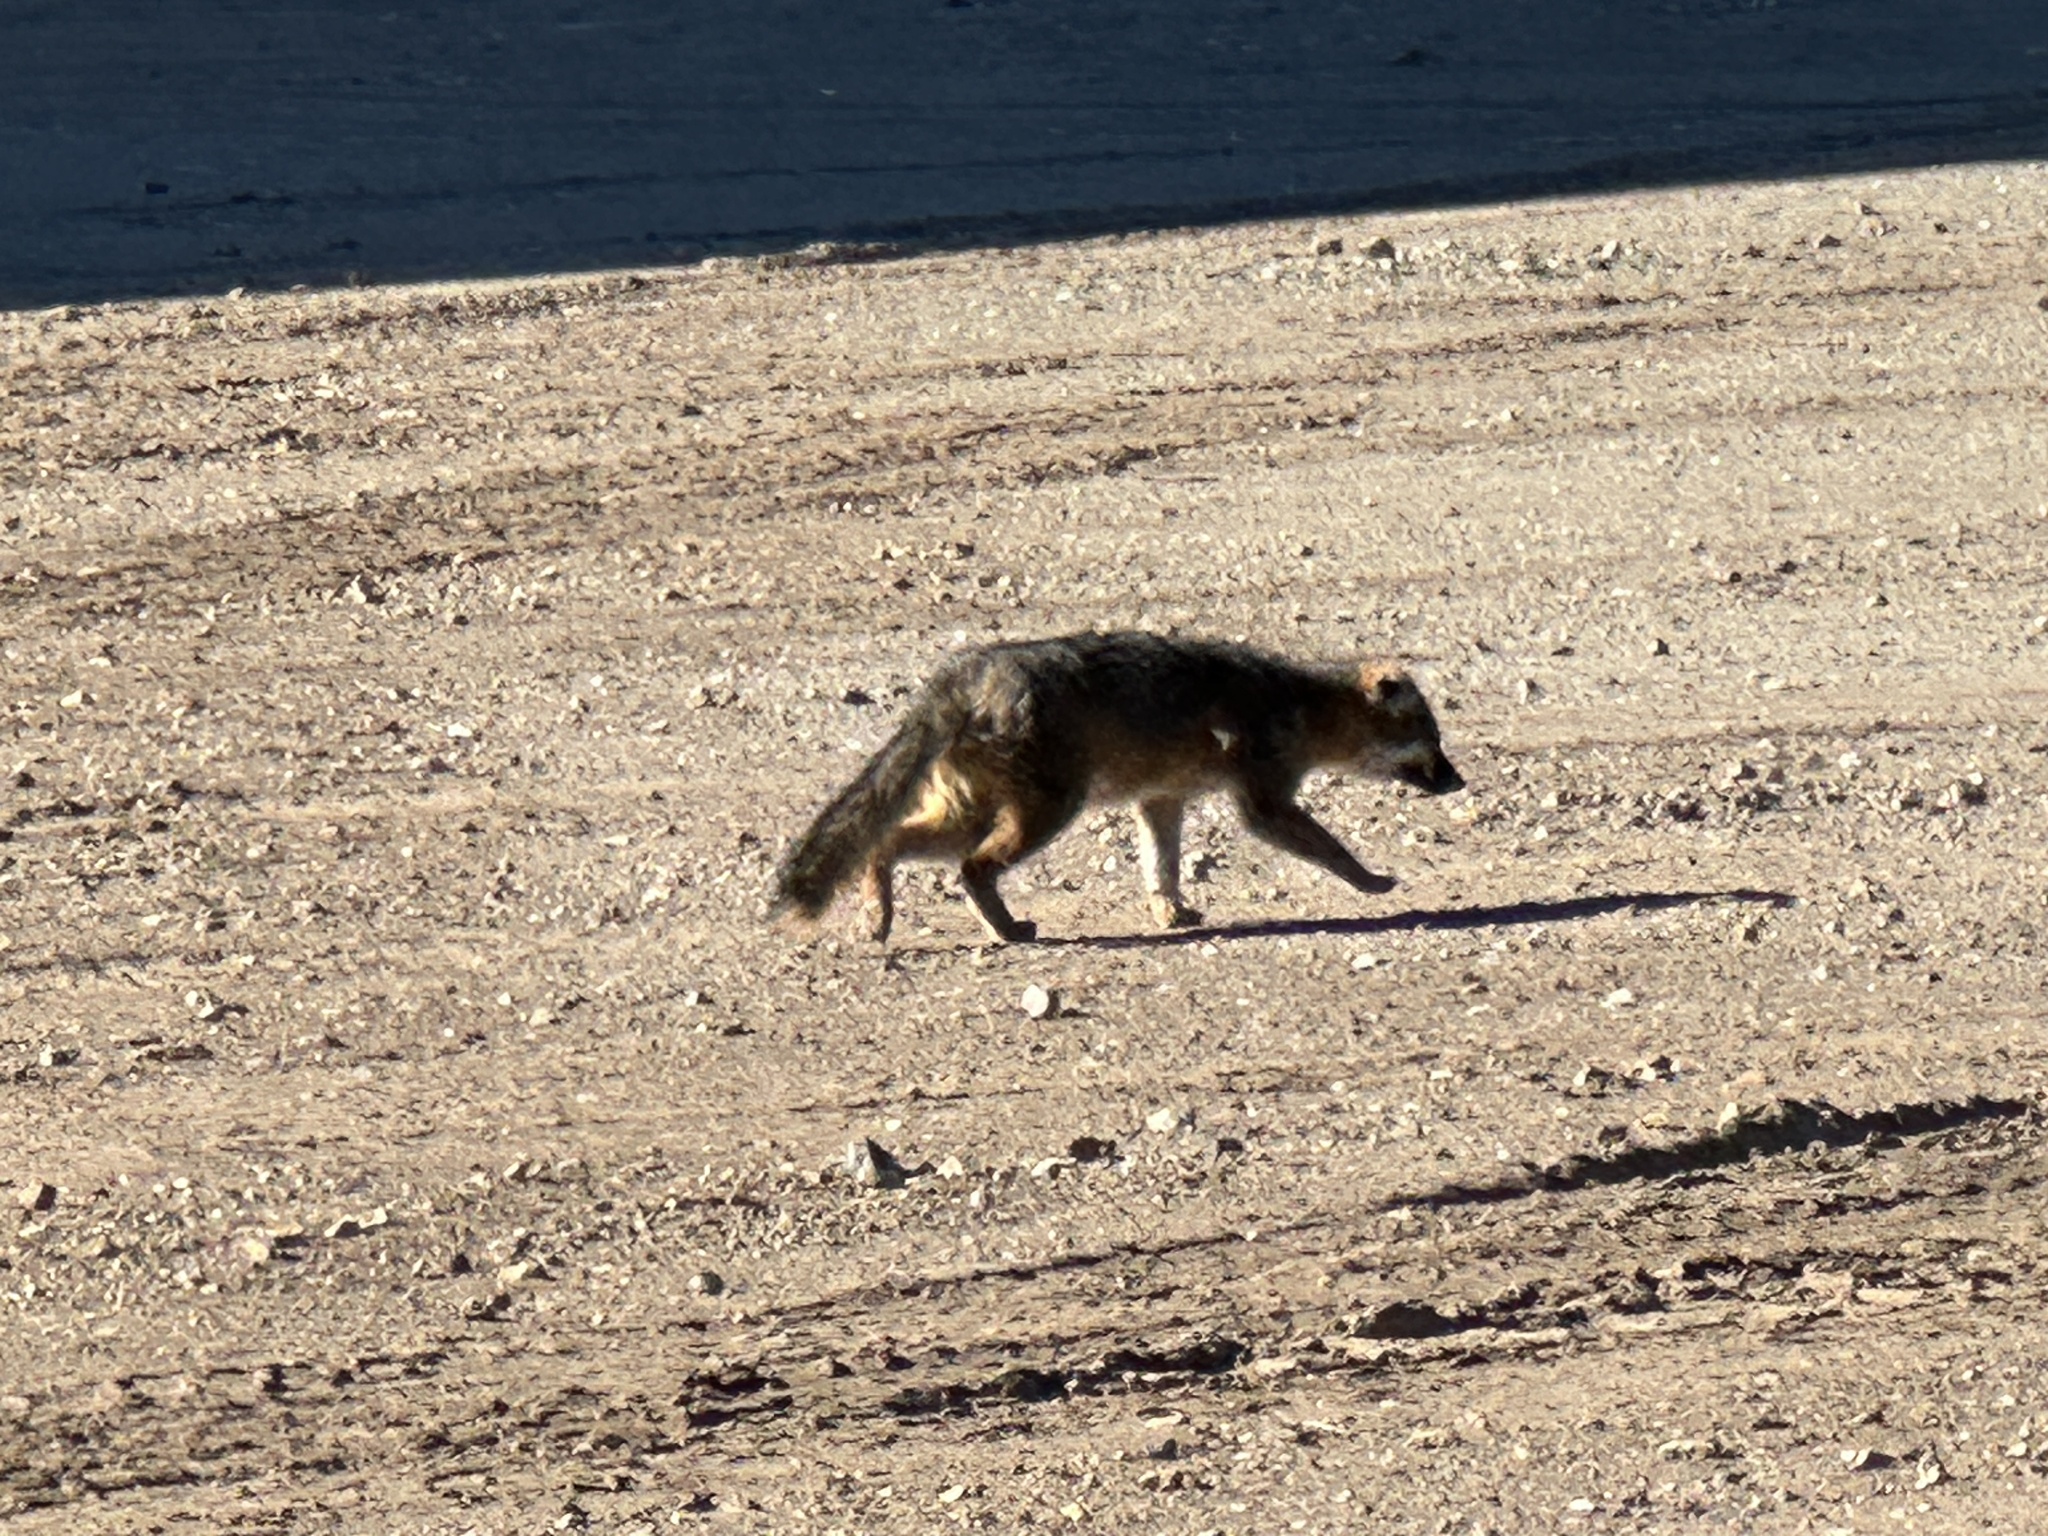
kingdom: Animalia
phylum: Chordata
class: Mammalia
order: Carnivora
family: Canidae
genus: Urocyon
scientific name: Urocyon littoralis
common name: Island gray fox
